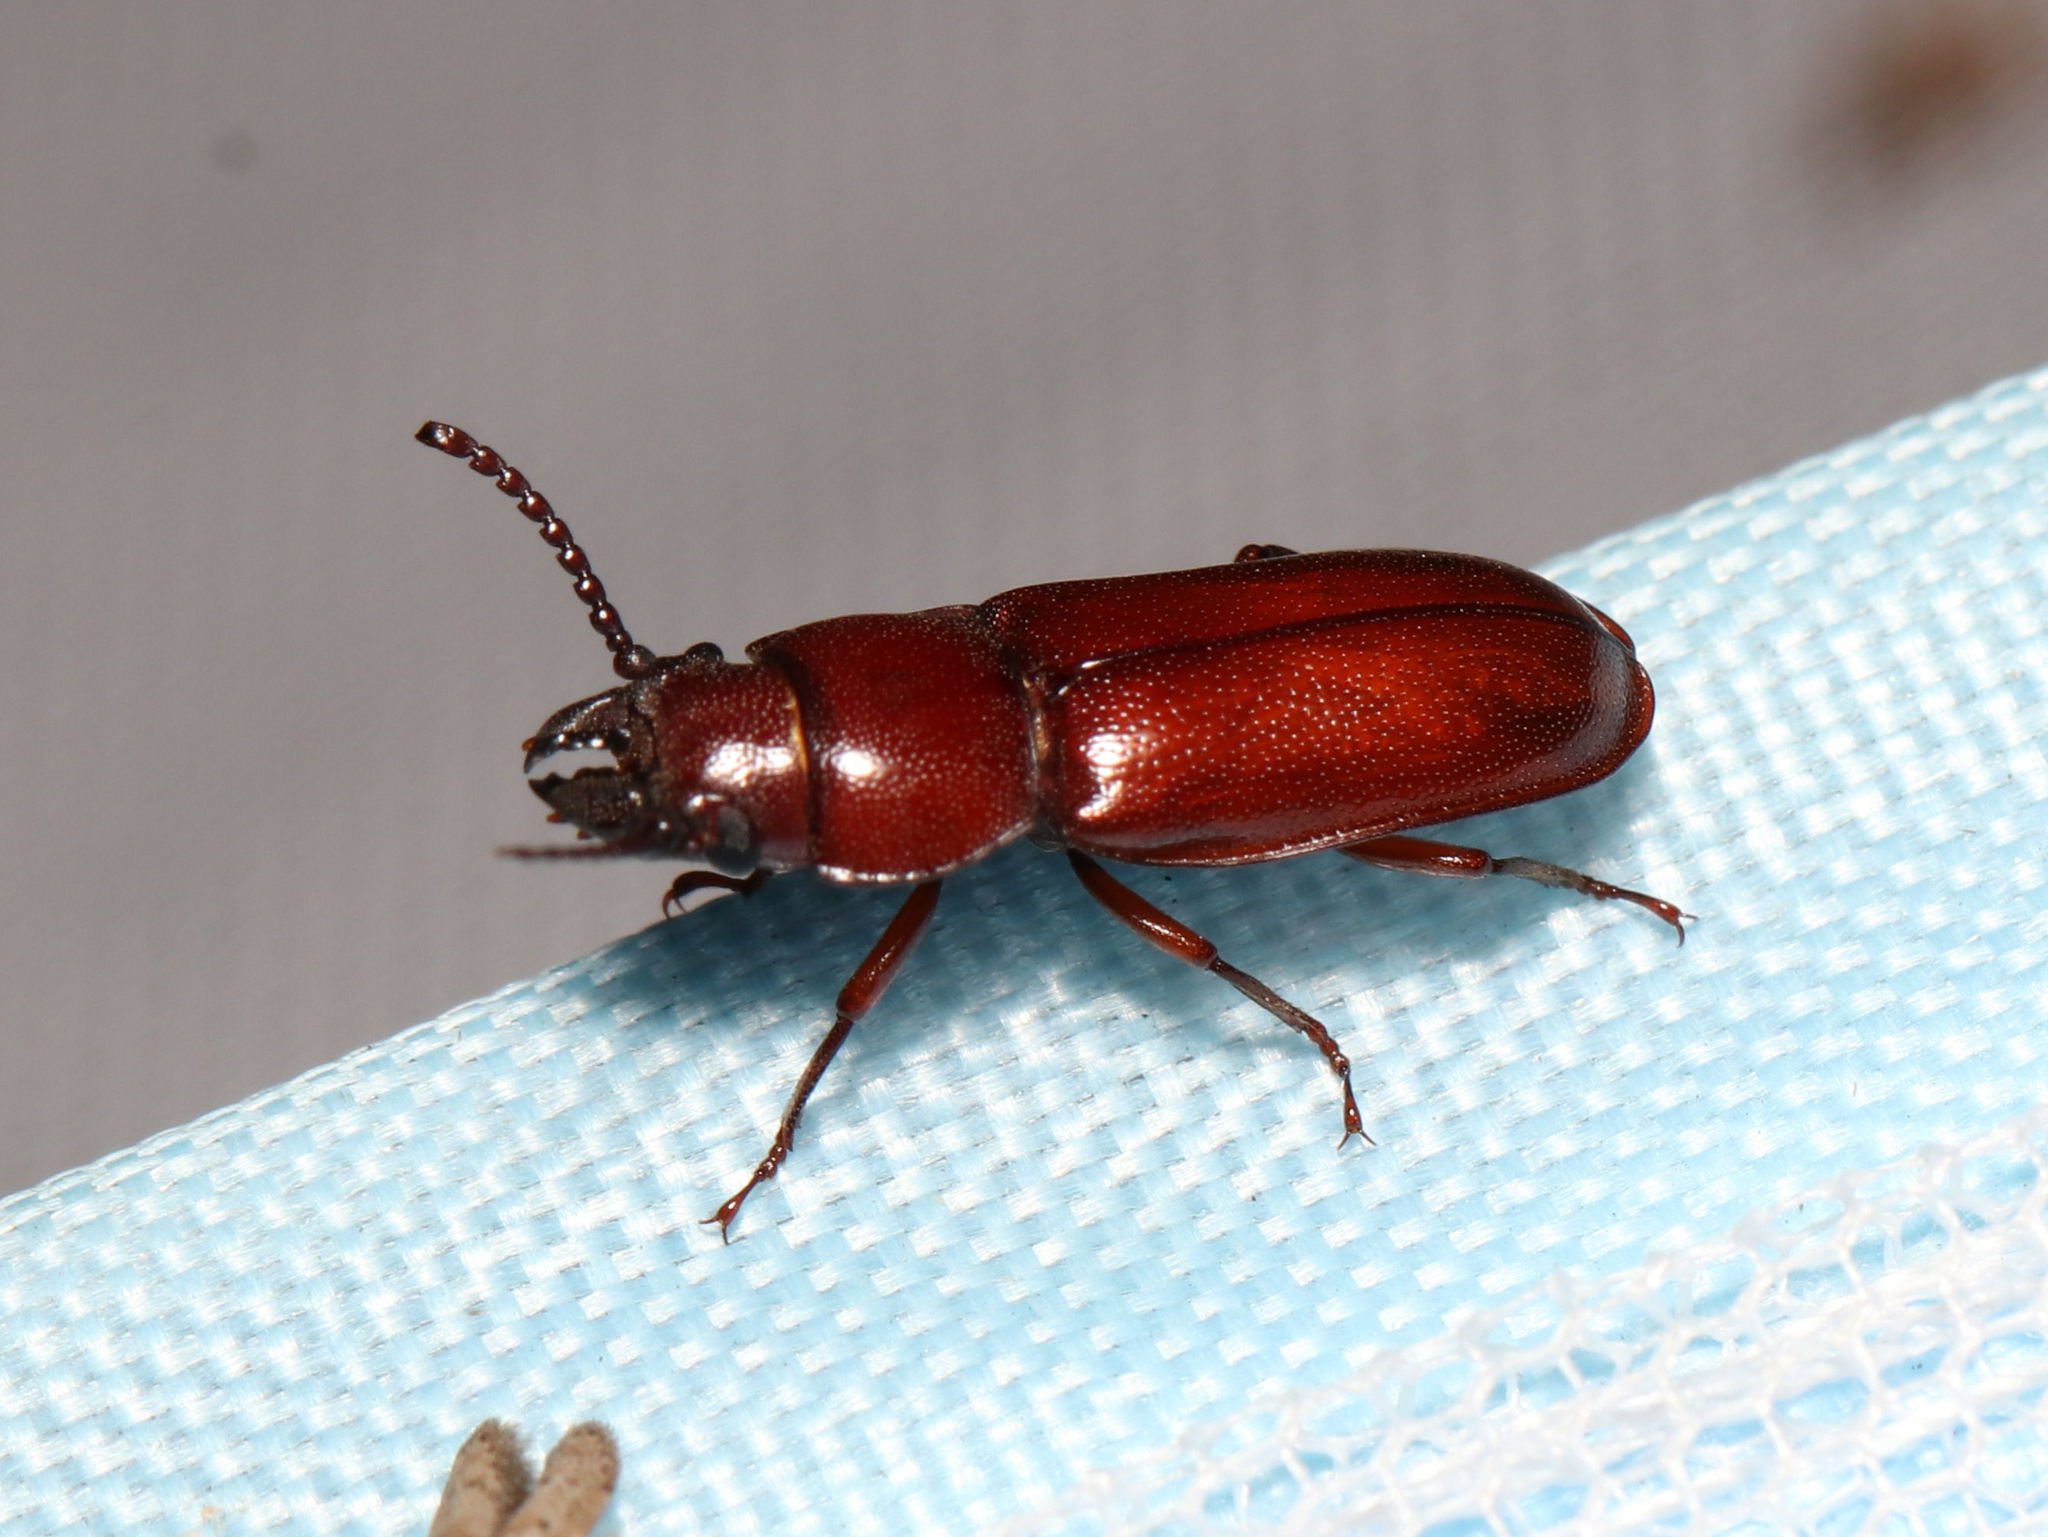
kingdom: Animalia
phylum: Arthropoda
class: Insecta
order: Coleoptera
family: Cerambycidae
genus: Neandra
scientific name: Neandra brunnea
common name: Pole borer
